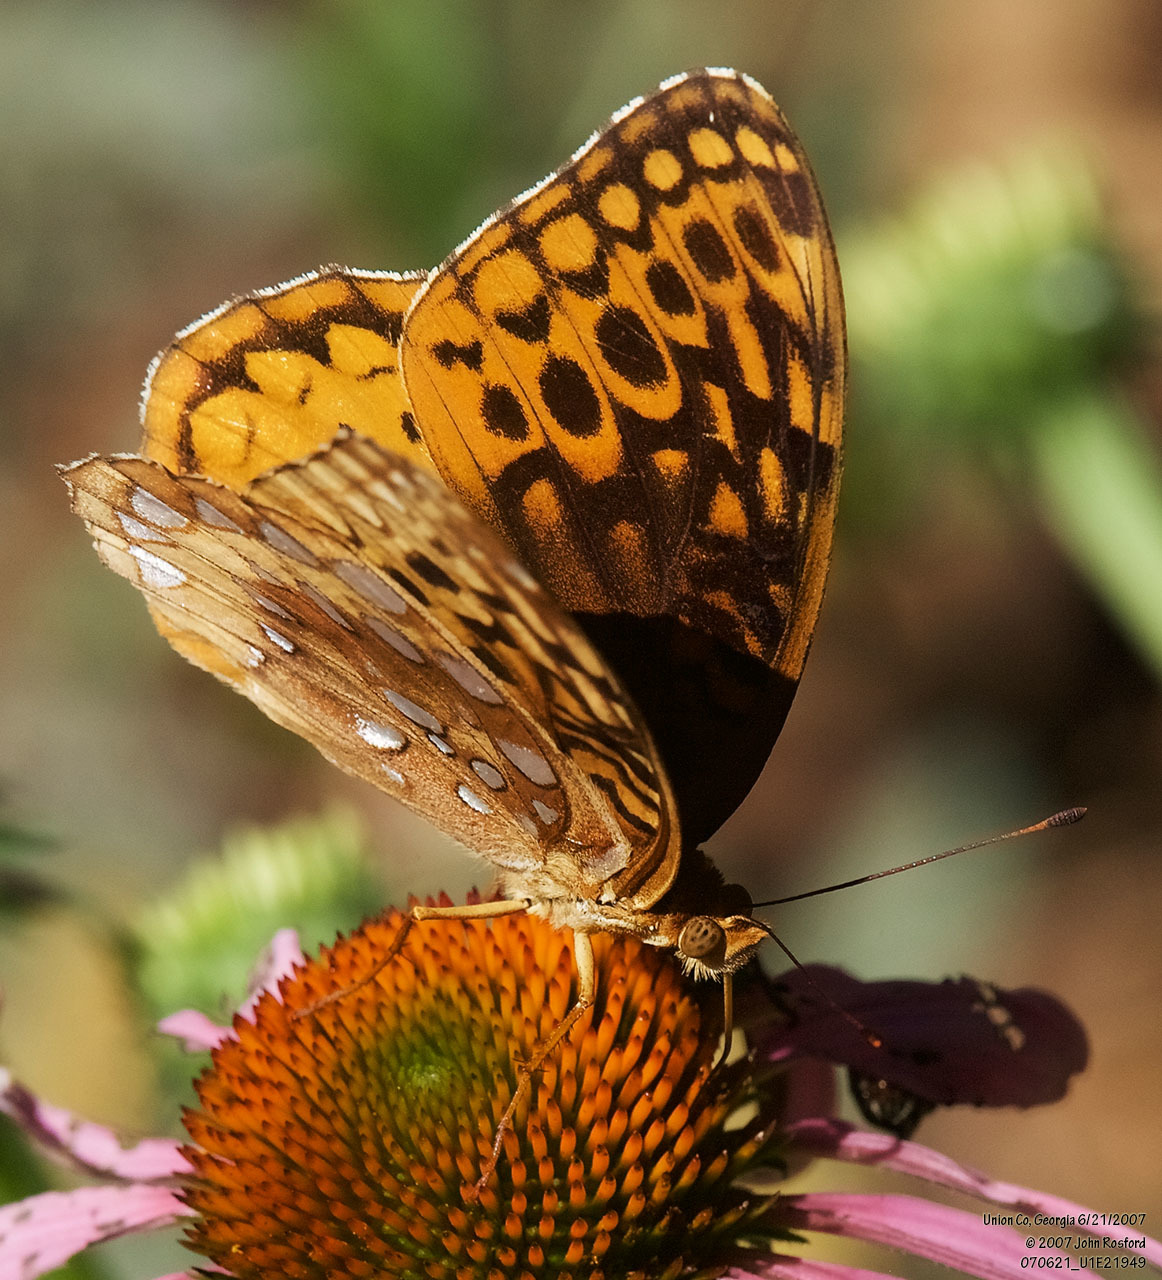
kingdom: Animalia
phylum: Arthropoda
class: Insecta
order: Lepidoptera
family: Nymphalidae
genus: Speyeria
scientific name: Speyeria cybele
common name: Great spangled fritillary
